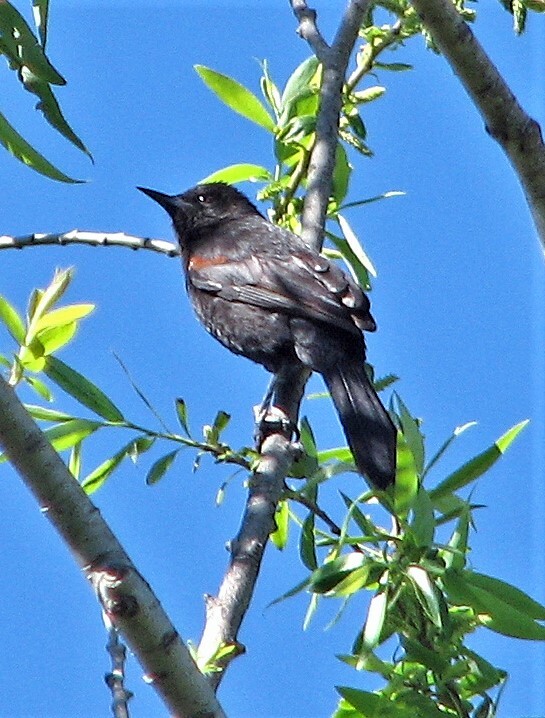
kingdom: Animalia
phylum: Chordata
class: Aves
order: Passeriformes
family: Icteridae
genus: Icterus
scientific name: Icterus cayanensis
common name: Epaulet oriole
